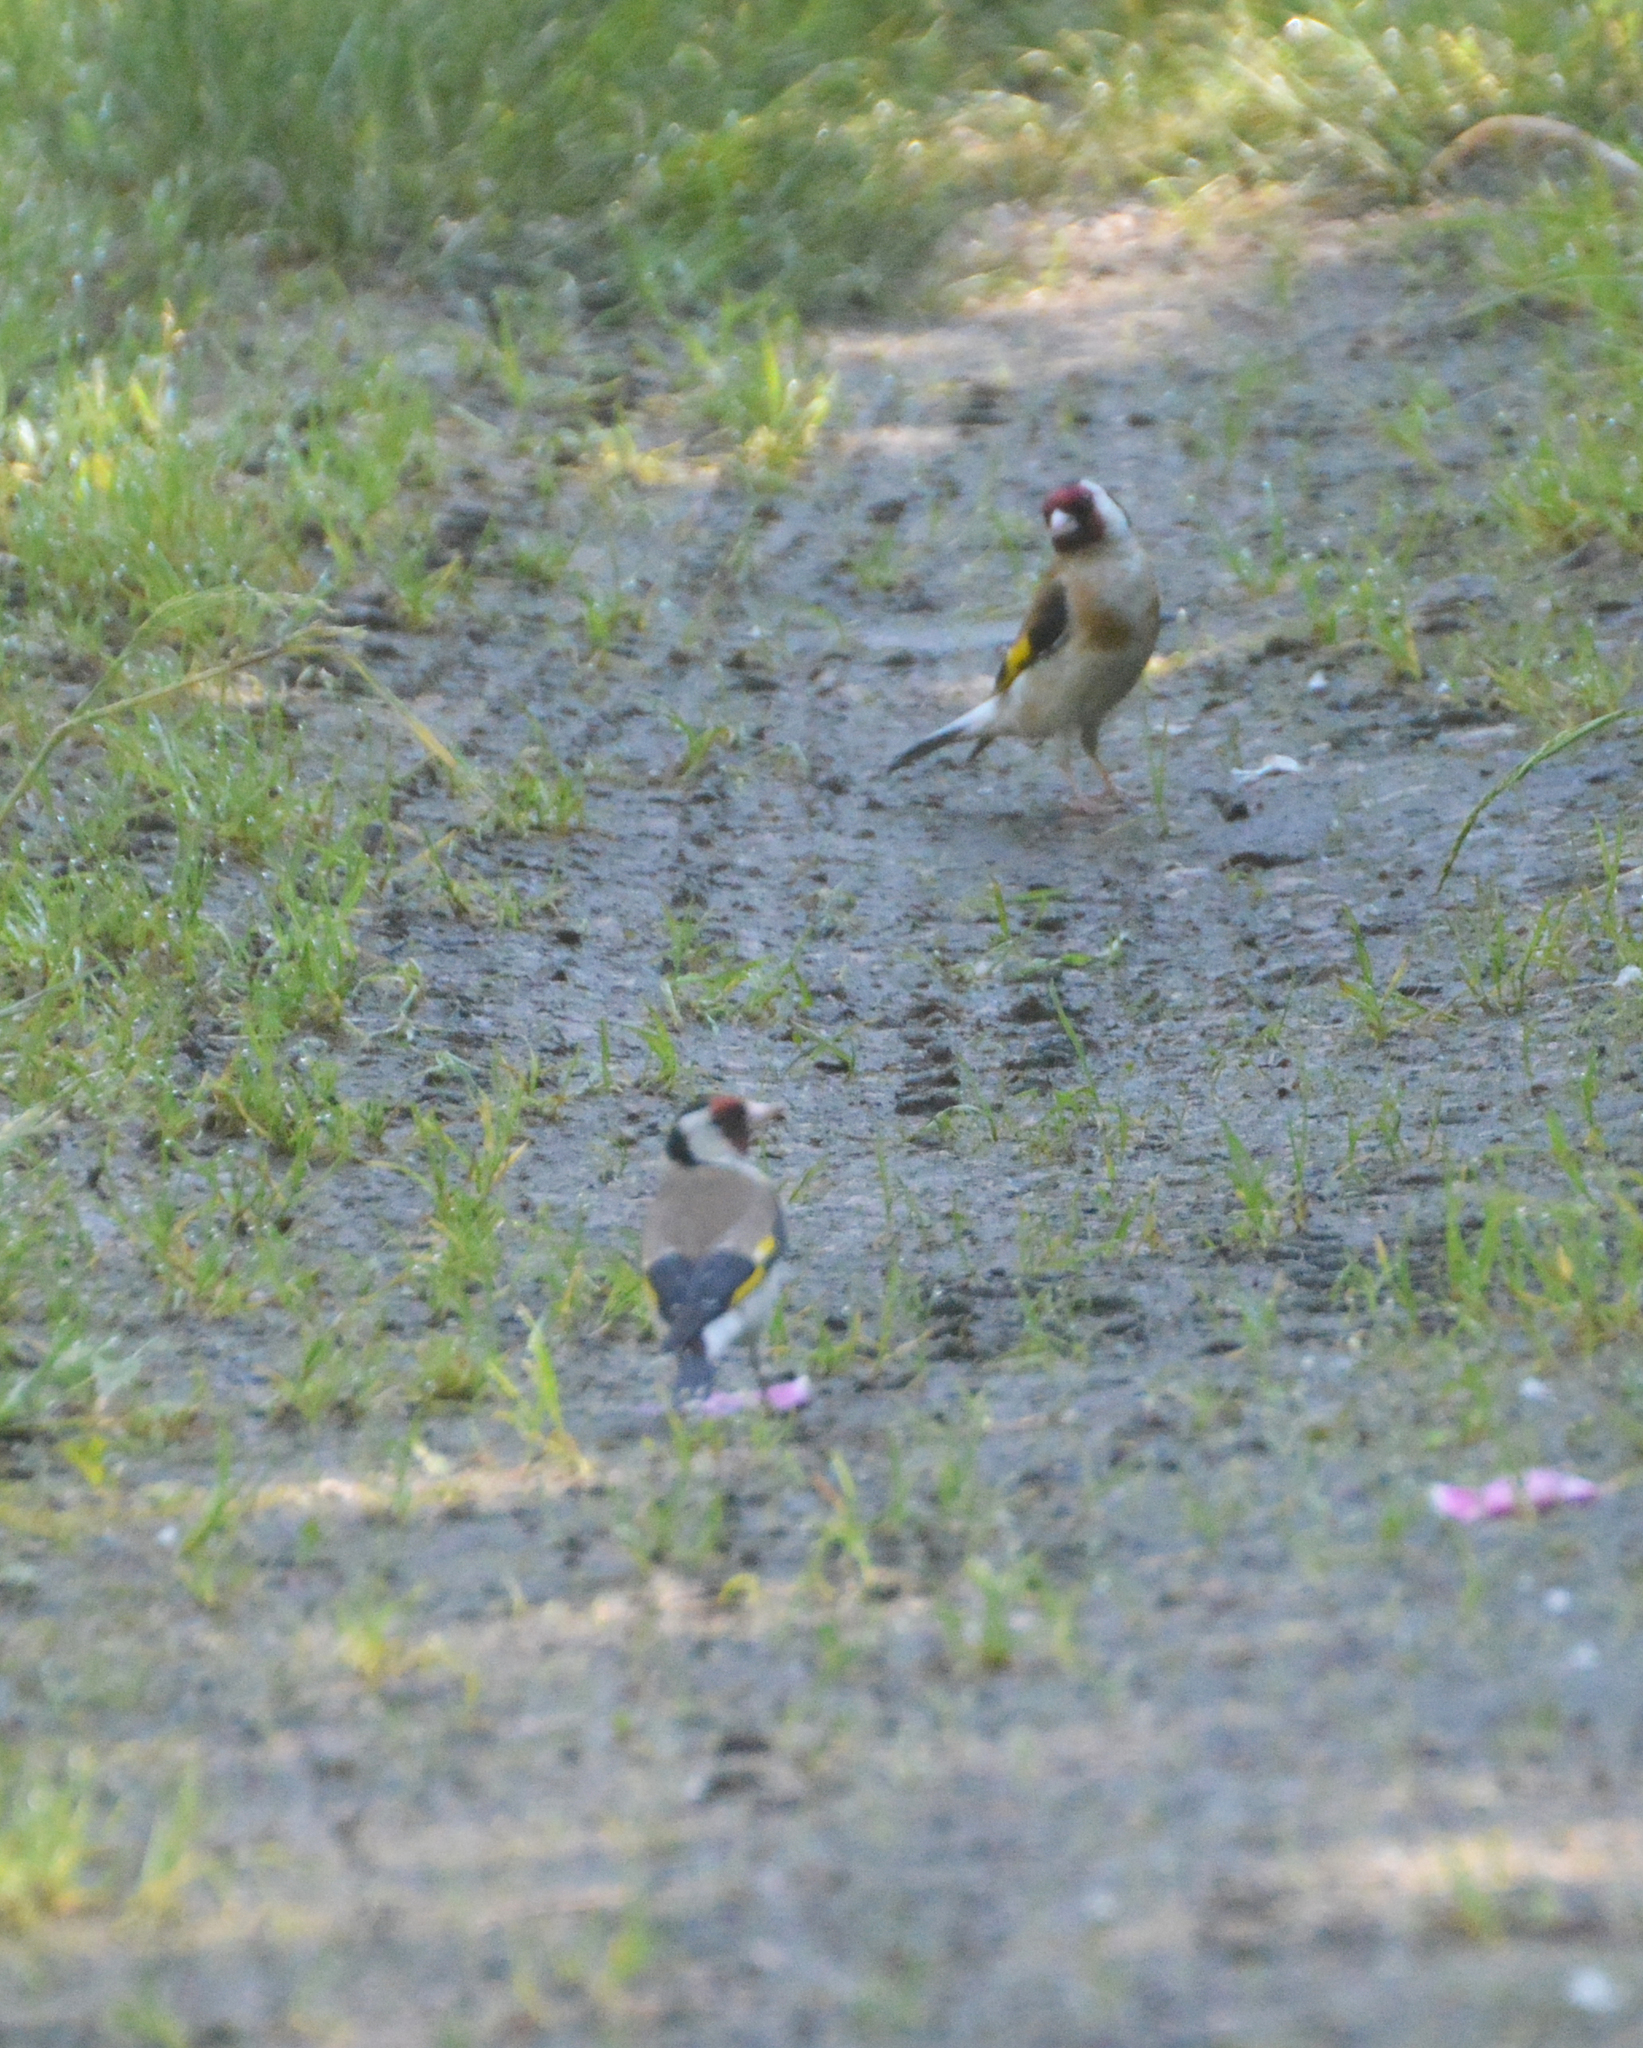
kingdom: Animalia
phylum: Chordata
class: Aves
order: Passeriformes
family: Fringillidae
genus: Carduelis
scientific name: Carduelis carduelis
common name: European goldfinch
